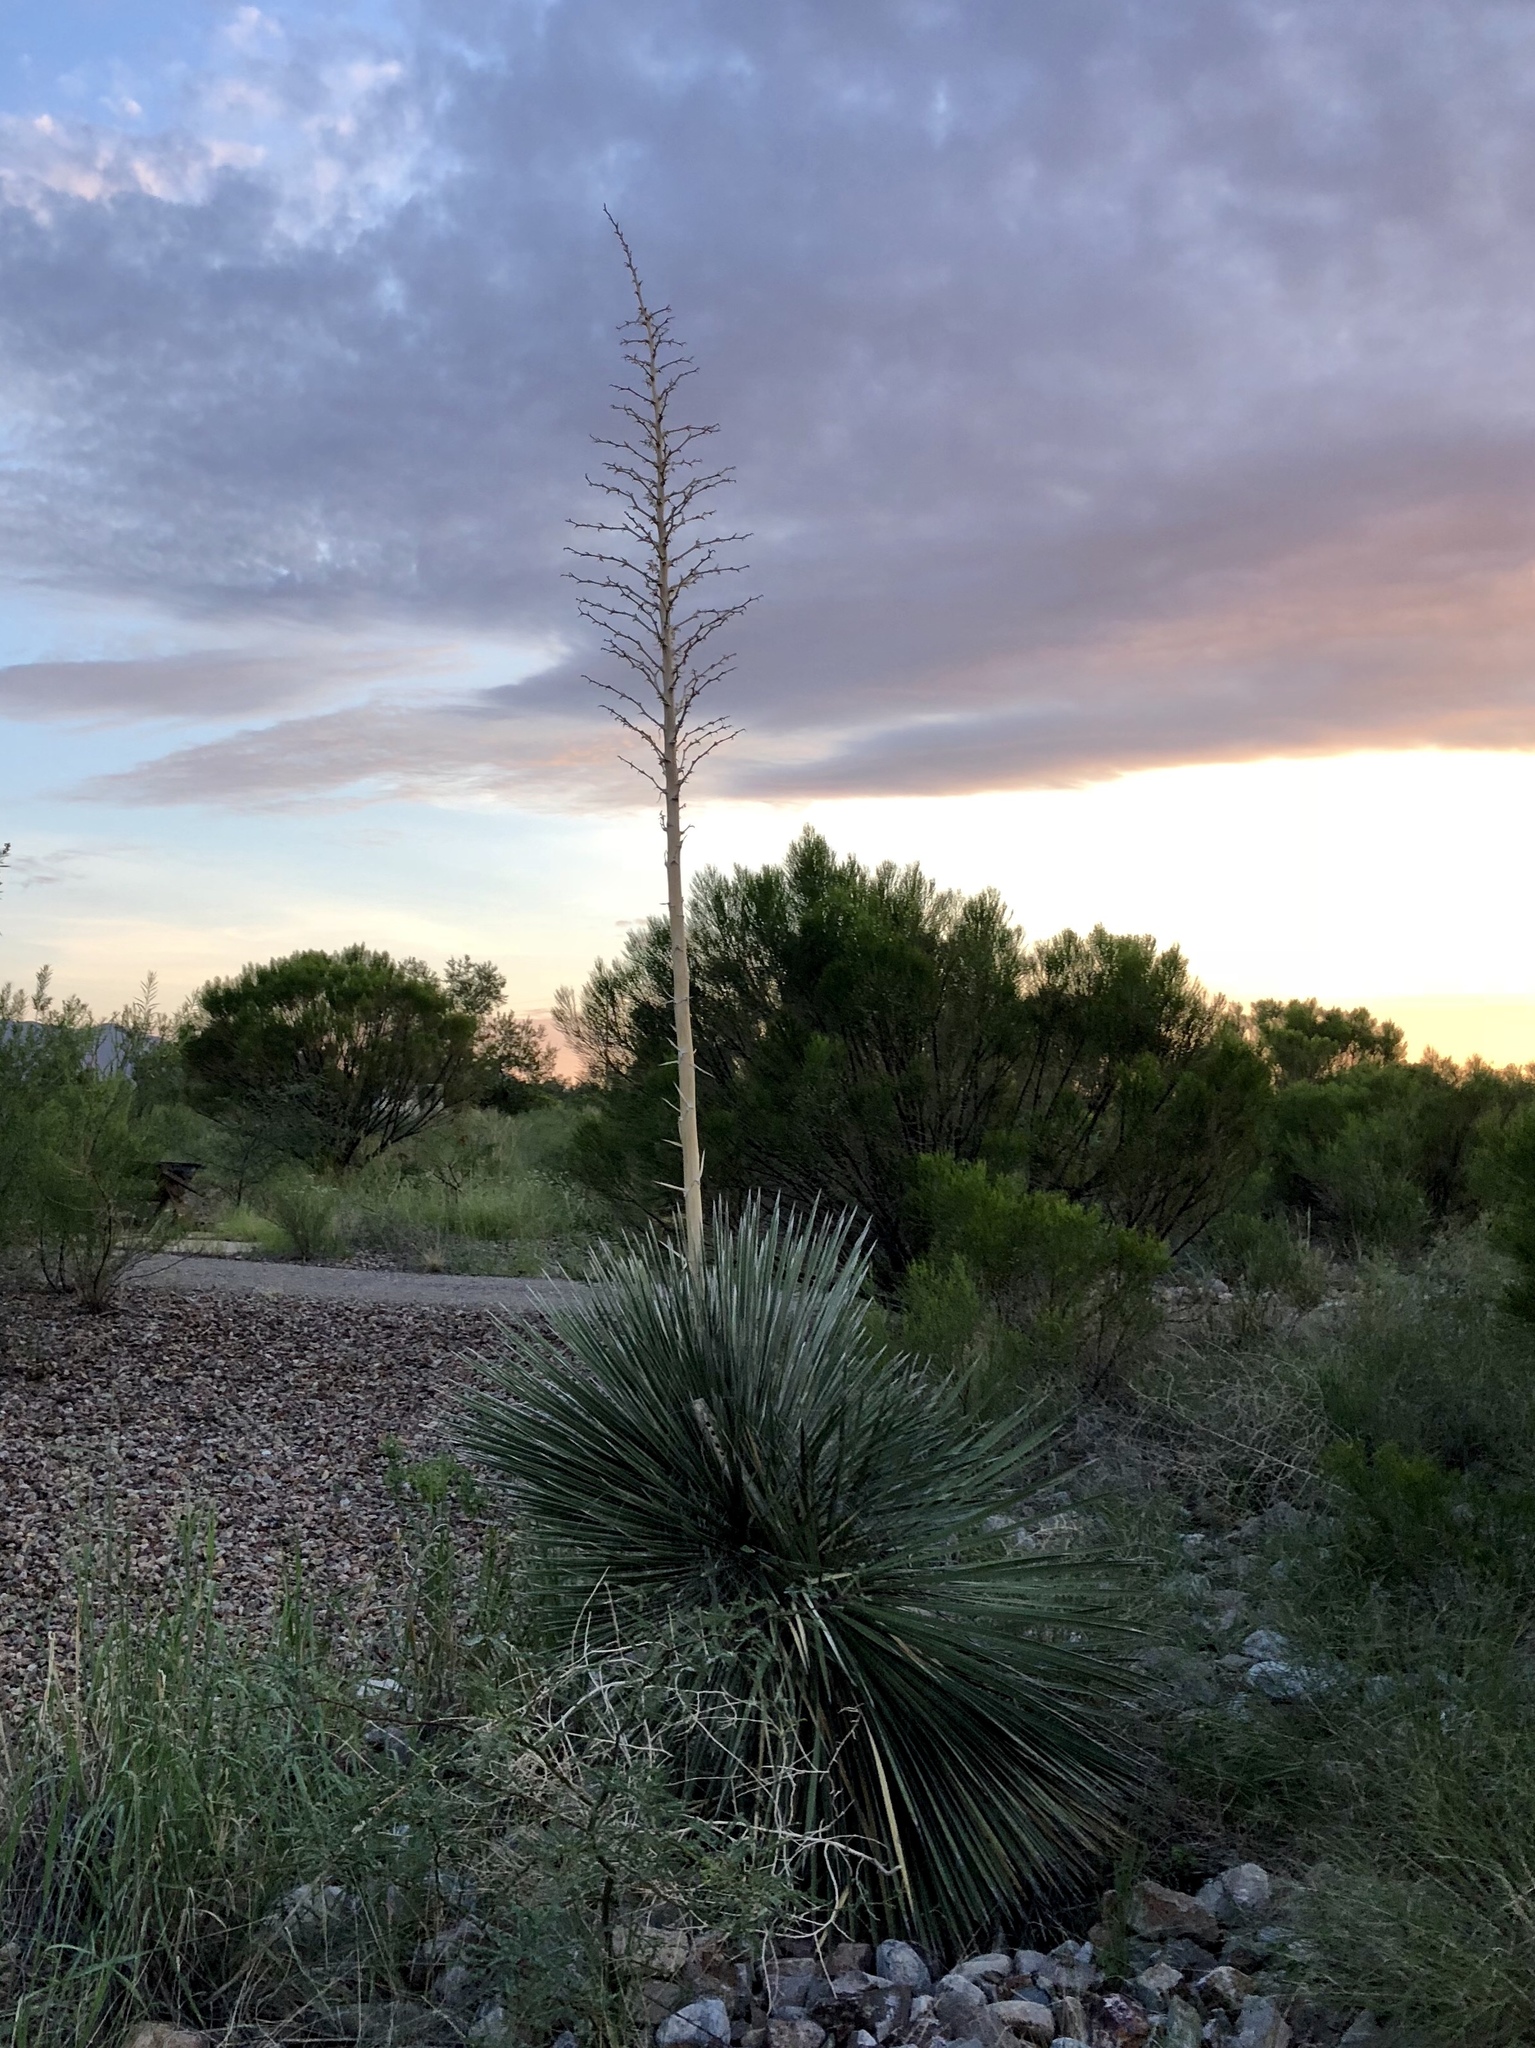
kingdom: Plantae
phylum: Tracheophyta
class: Liliopsida
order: Asparagales
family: Asparagaceae
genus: Yucca
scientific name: Yucca elata
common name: Palmella
